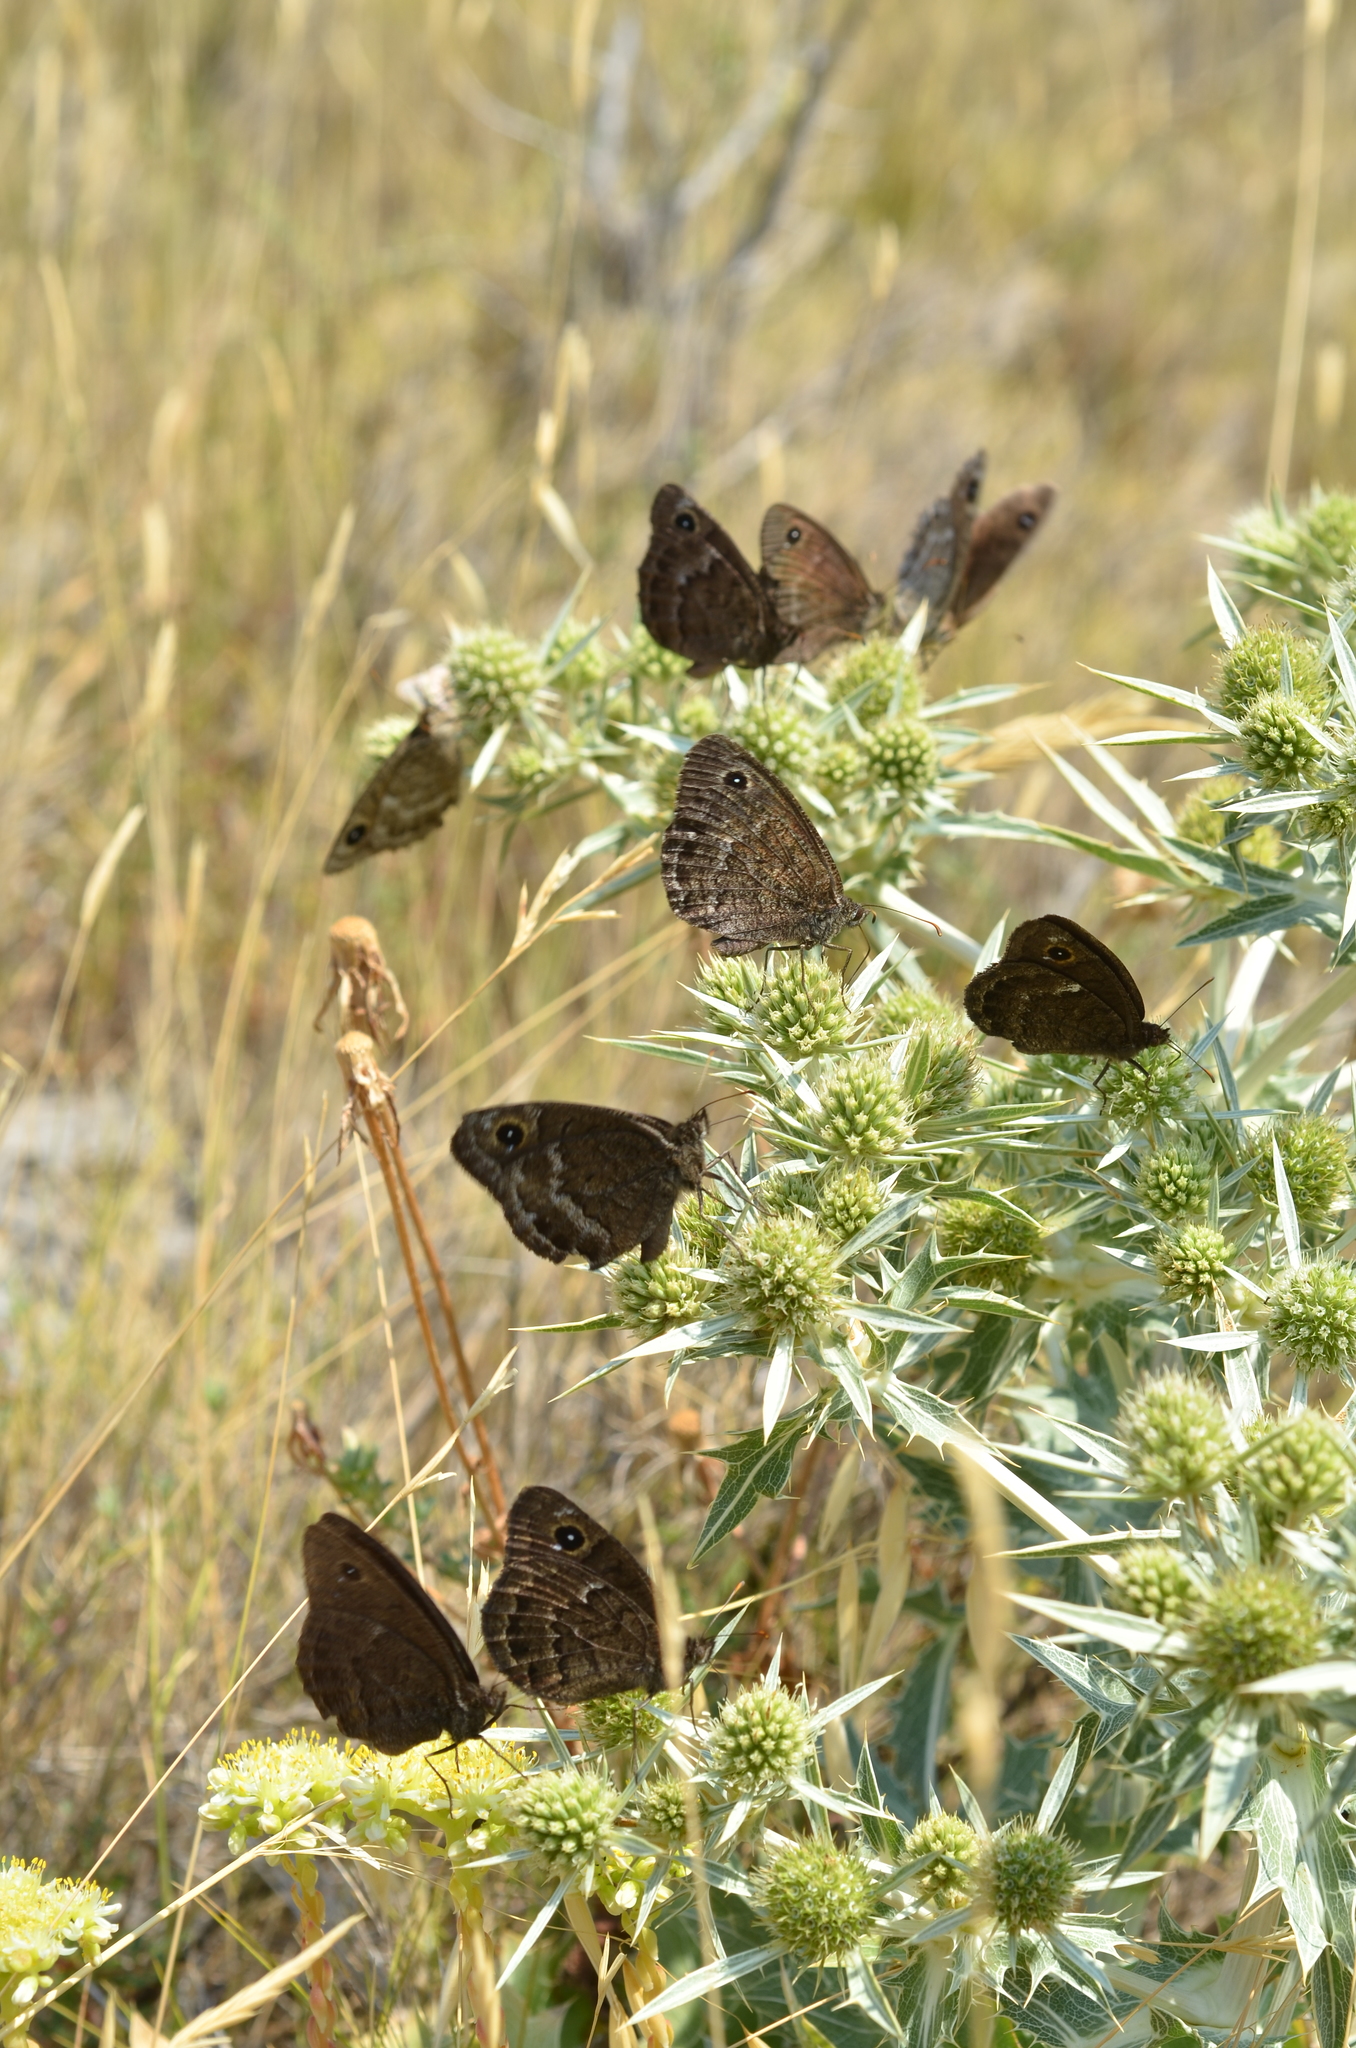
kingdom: Animalia
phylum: Arthropoda
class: Insecta
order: Lepidoptera
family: Nymphalidae
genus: Satyrus
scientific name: Satyrus actaea
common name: Black satyr
